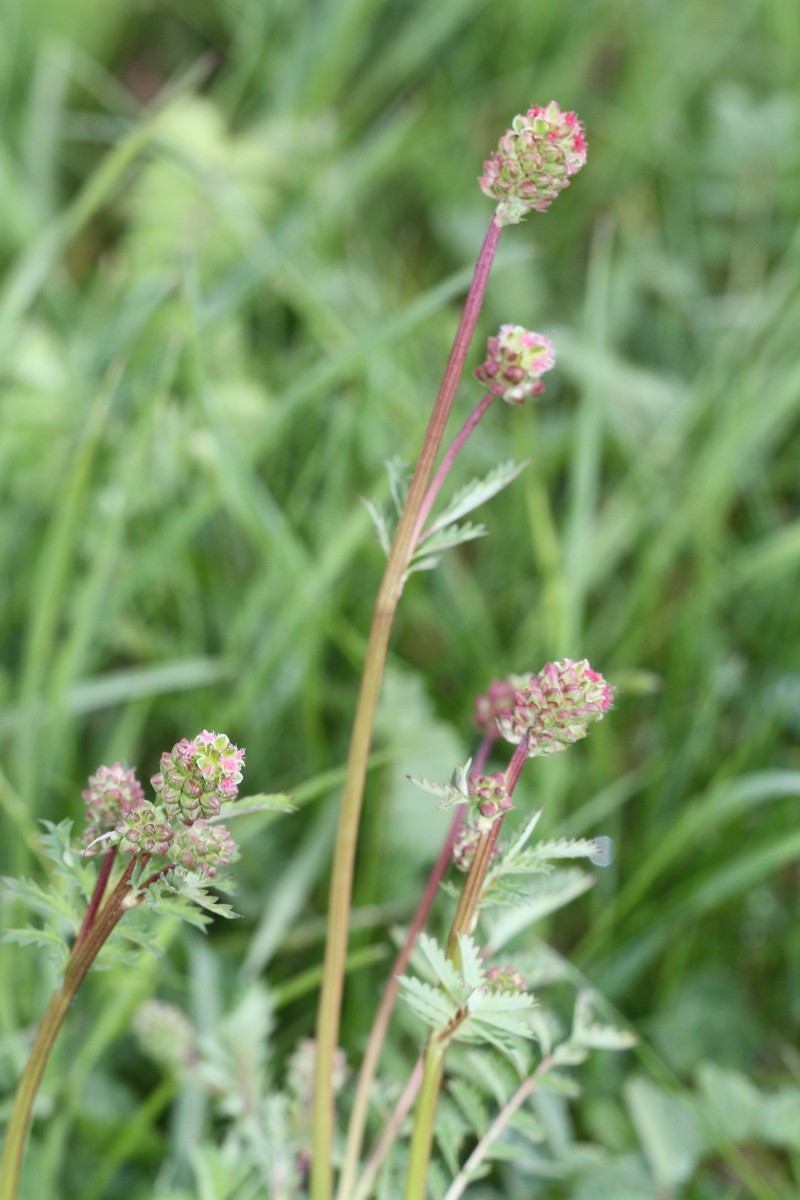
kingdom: Plantae
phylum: Tracheophyta
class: Magnoliopsida
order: Rosales
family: Rosaceae
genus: Poterium
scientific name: Poterium sanguisorba
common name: Salad burnet
